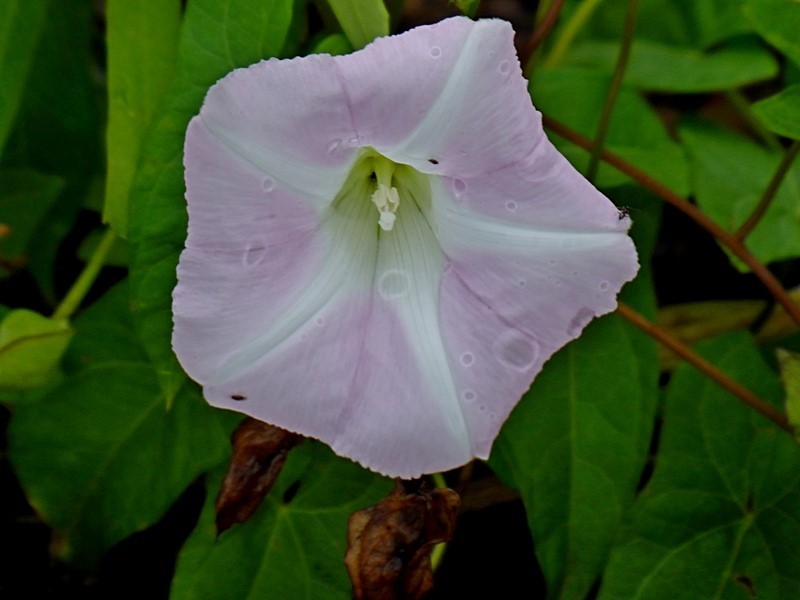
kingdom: Plantae
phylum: Tracheophyta
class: Magnoliopsida
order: Solanales
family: Convolvulaceae
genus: Calystegia
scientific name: Calystegia sepium
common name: Hedge bindweed
